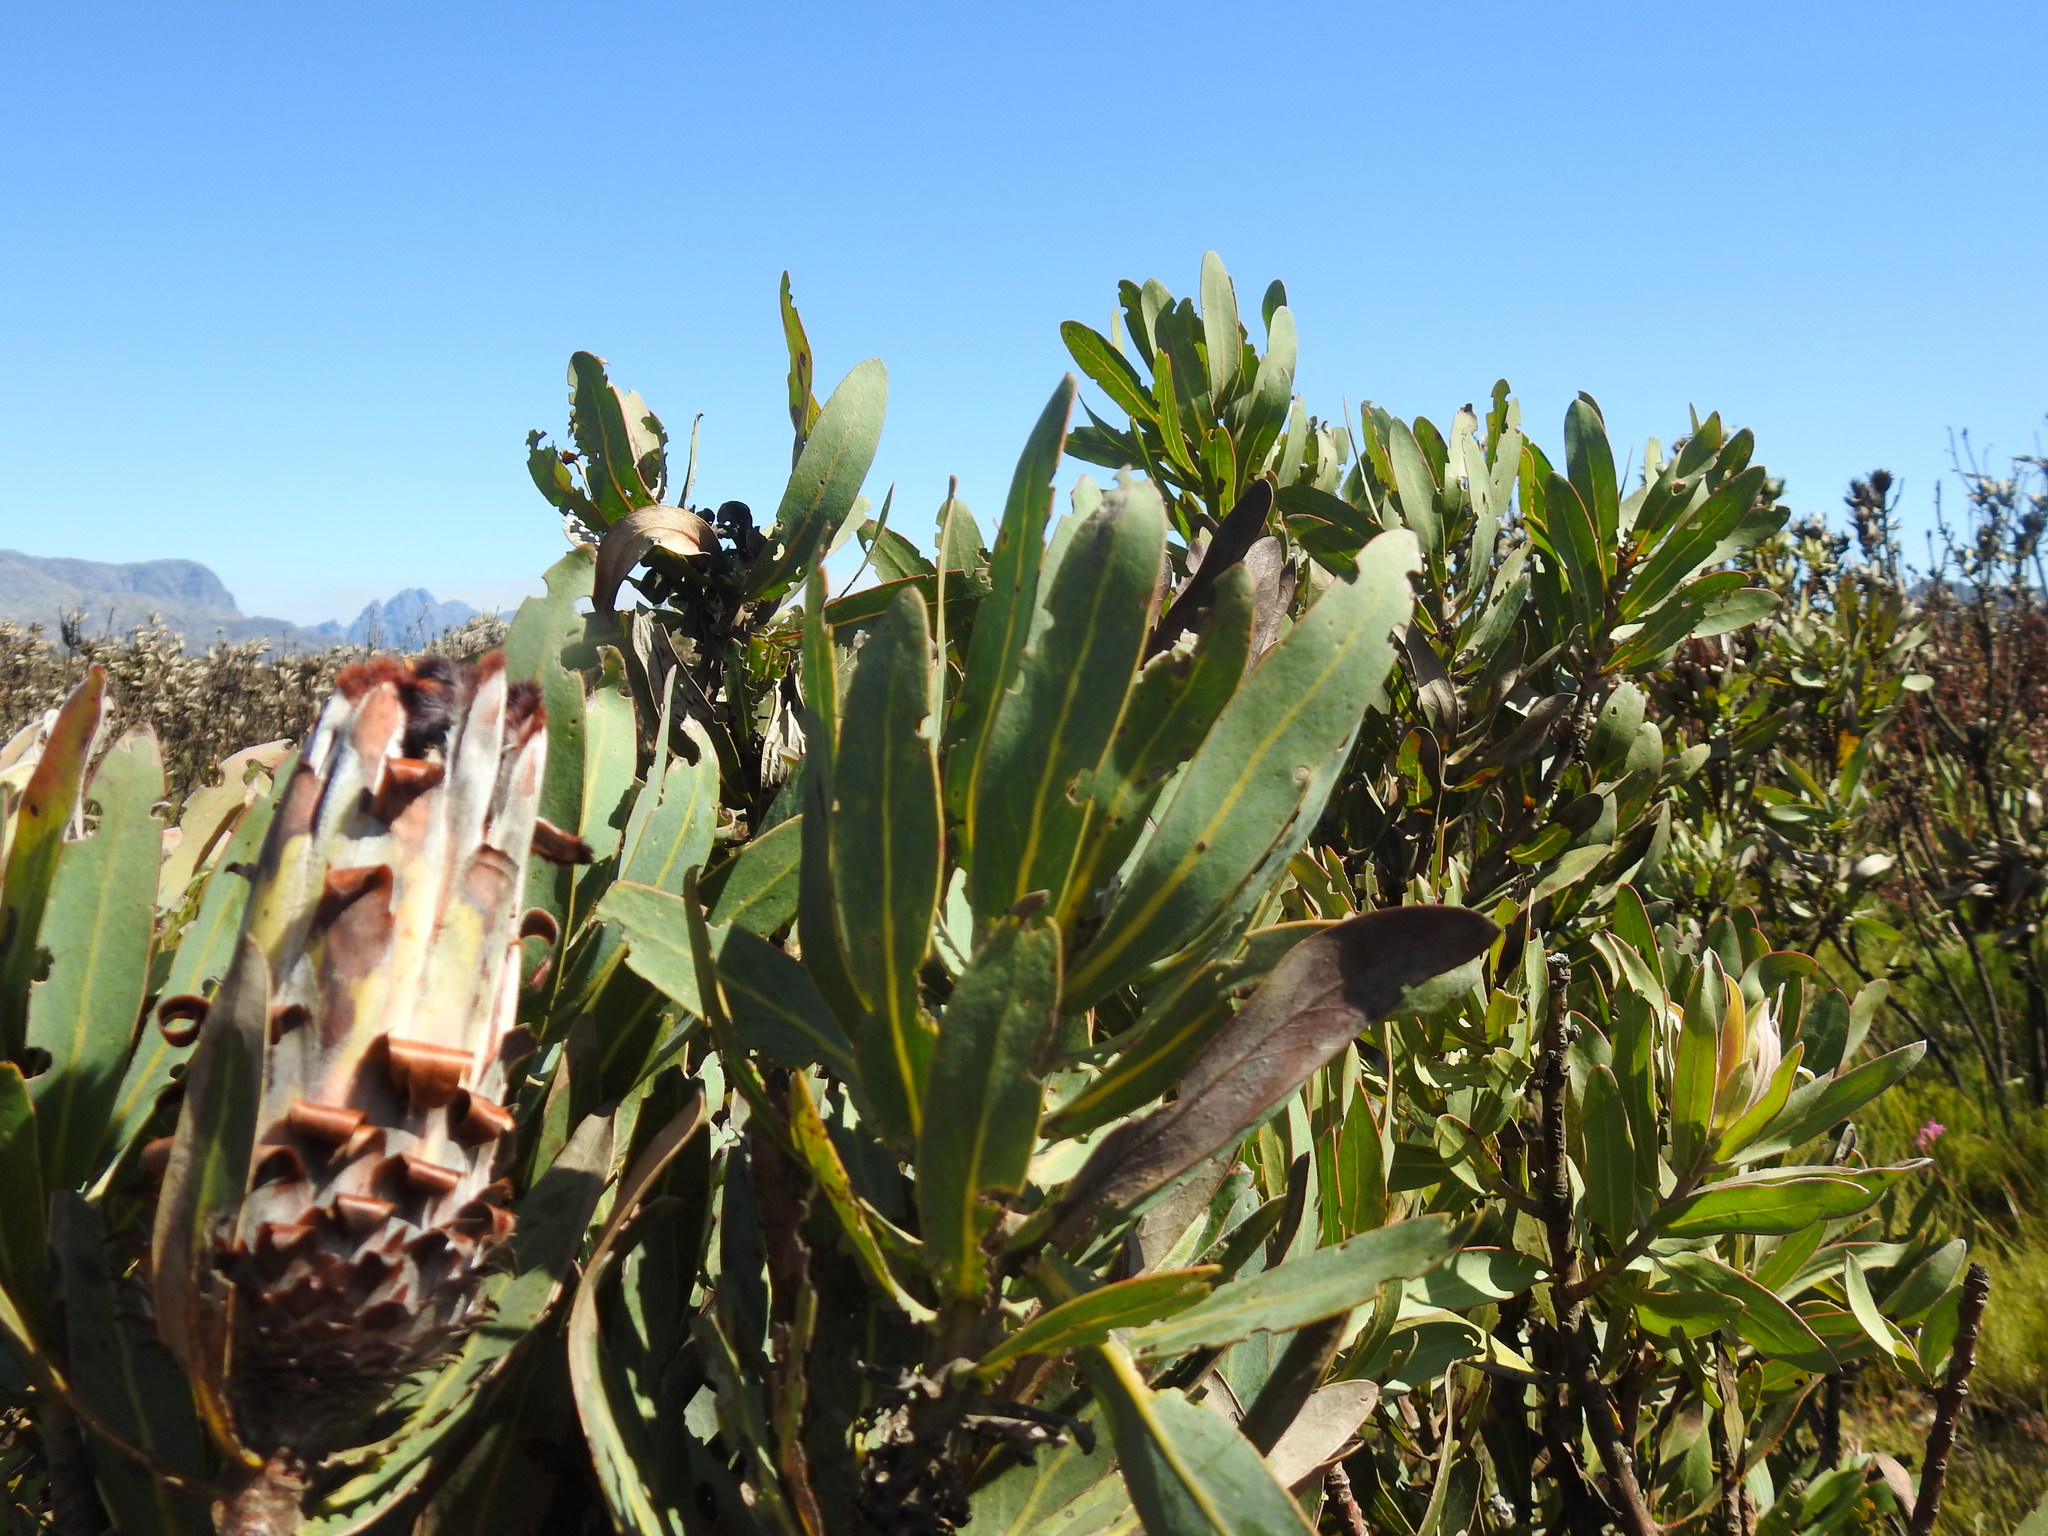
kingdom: Plantae
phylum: Tracheophyta
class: Magnoliopsida
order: Proteales
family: Proteaceae
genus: Protea
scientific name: Protea laurifolia
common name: Grey-leaf sugarbsh
